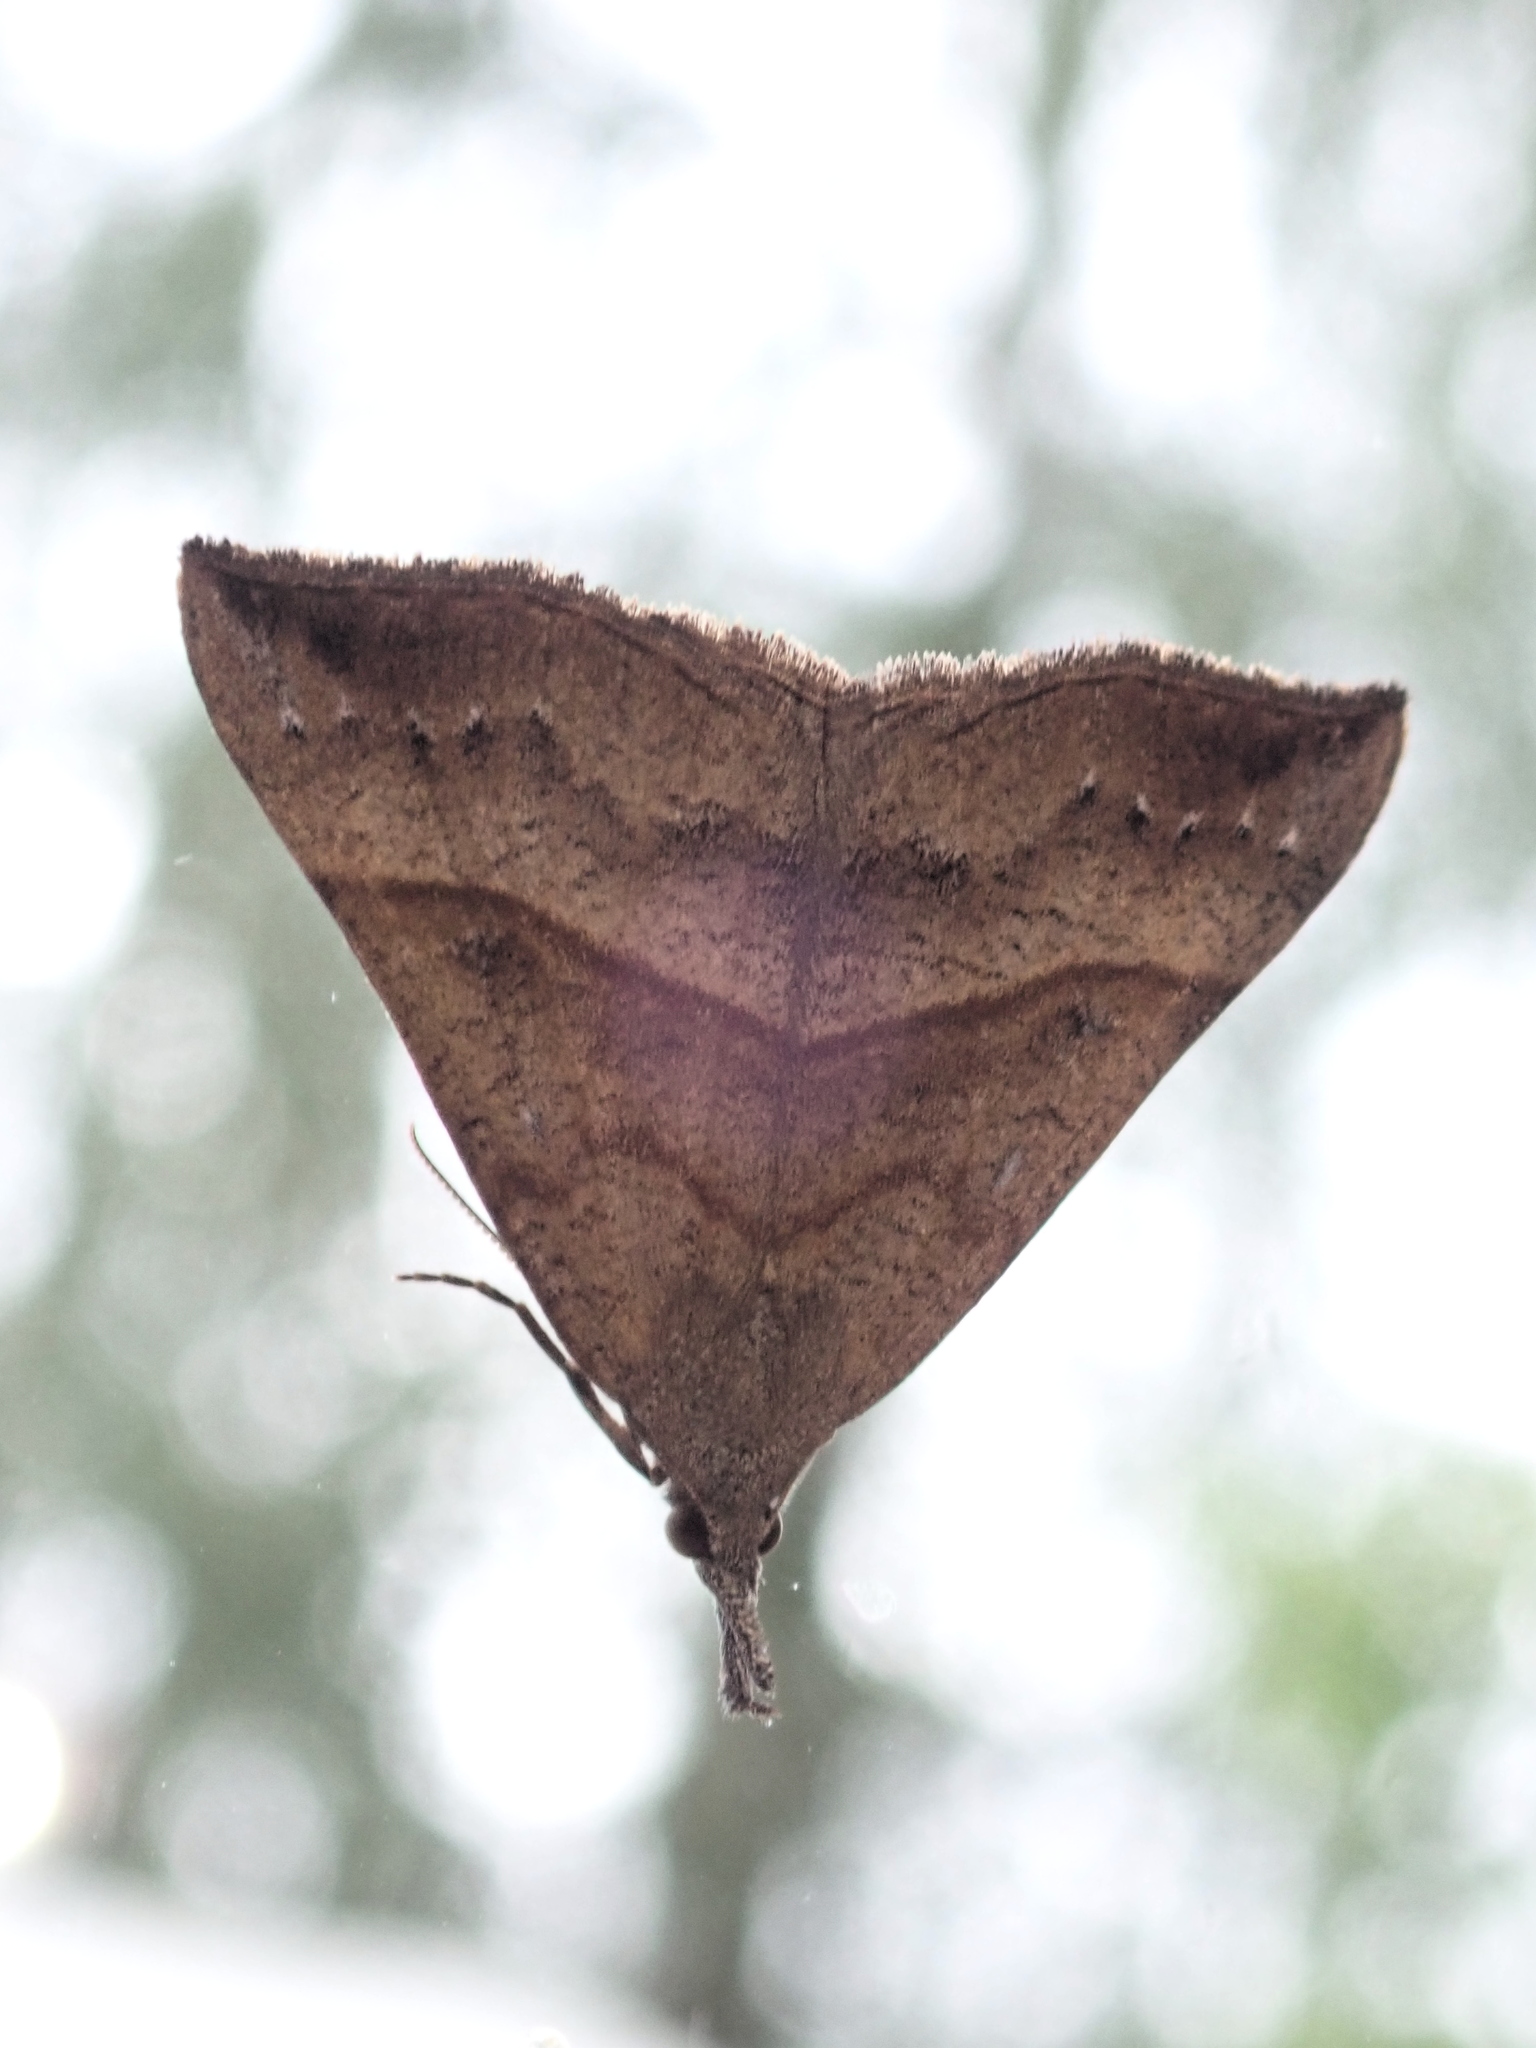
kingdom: Animalia
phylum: Arthropoda
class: Insecta
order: Lepidoptera
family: Erebidae
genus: Hypena
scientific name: Hypena proboscidalis
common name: Snout
